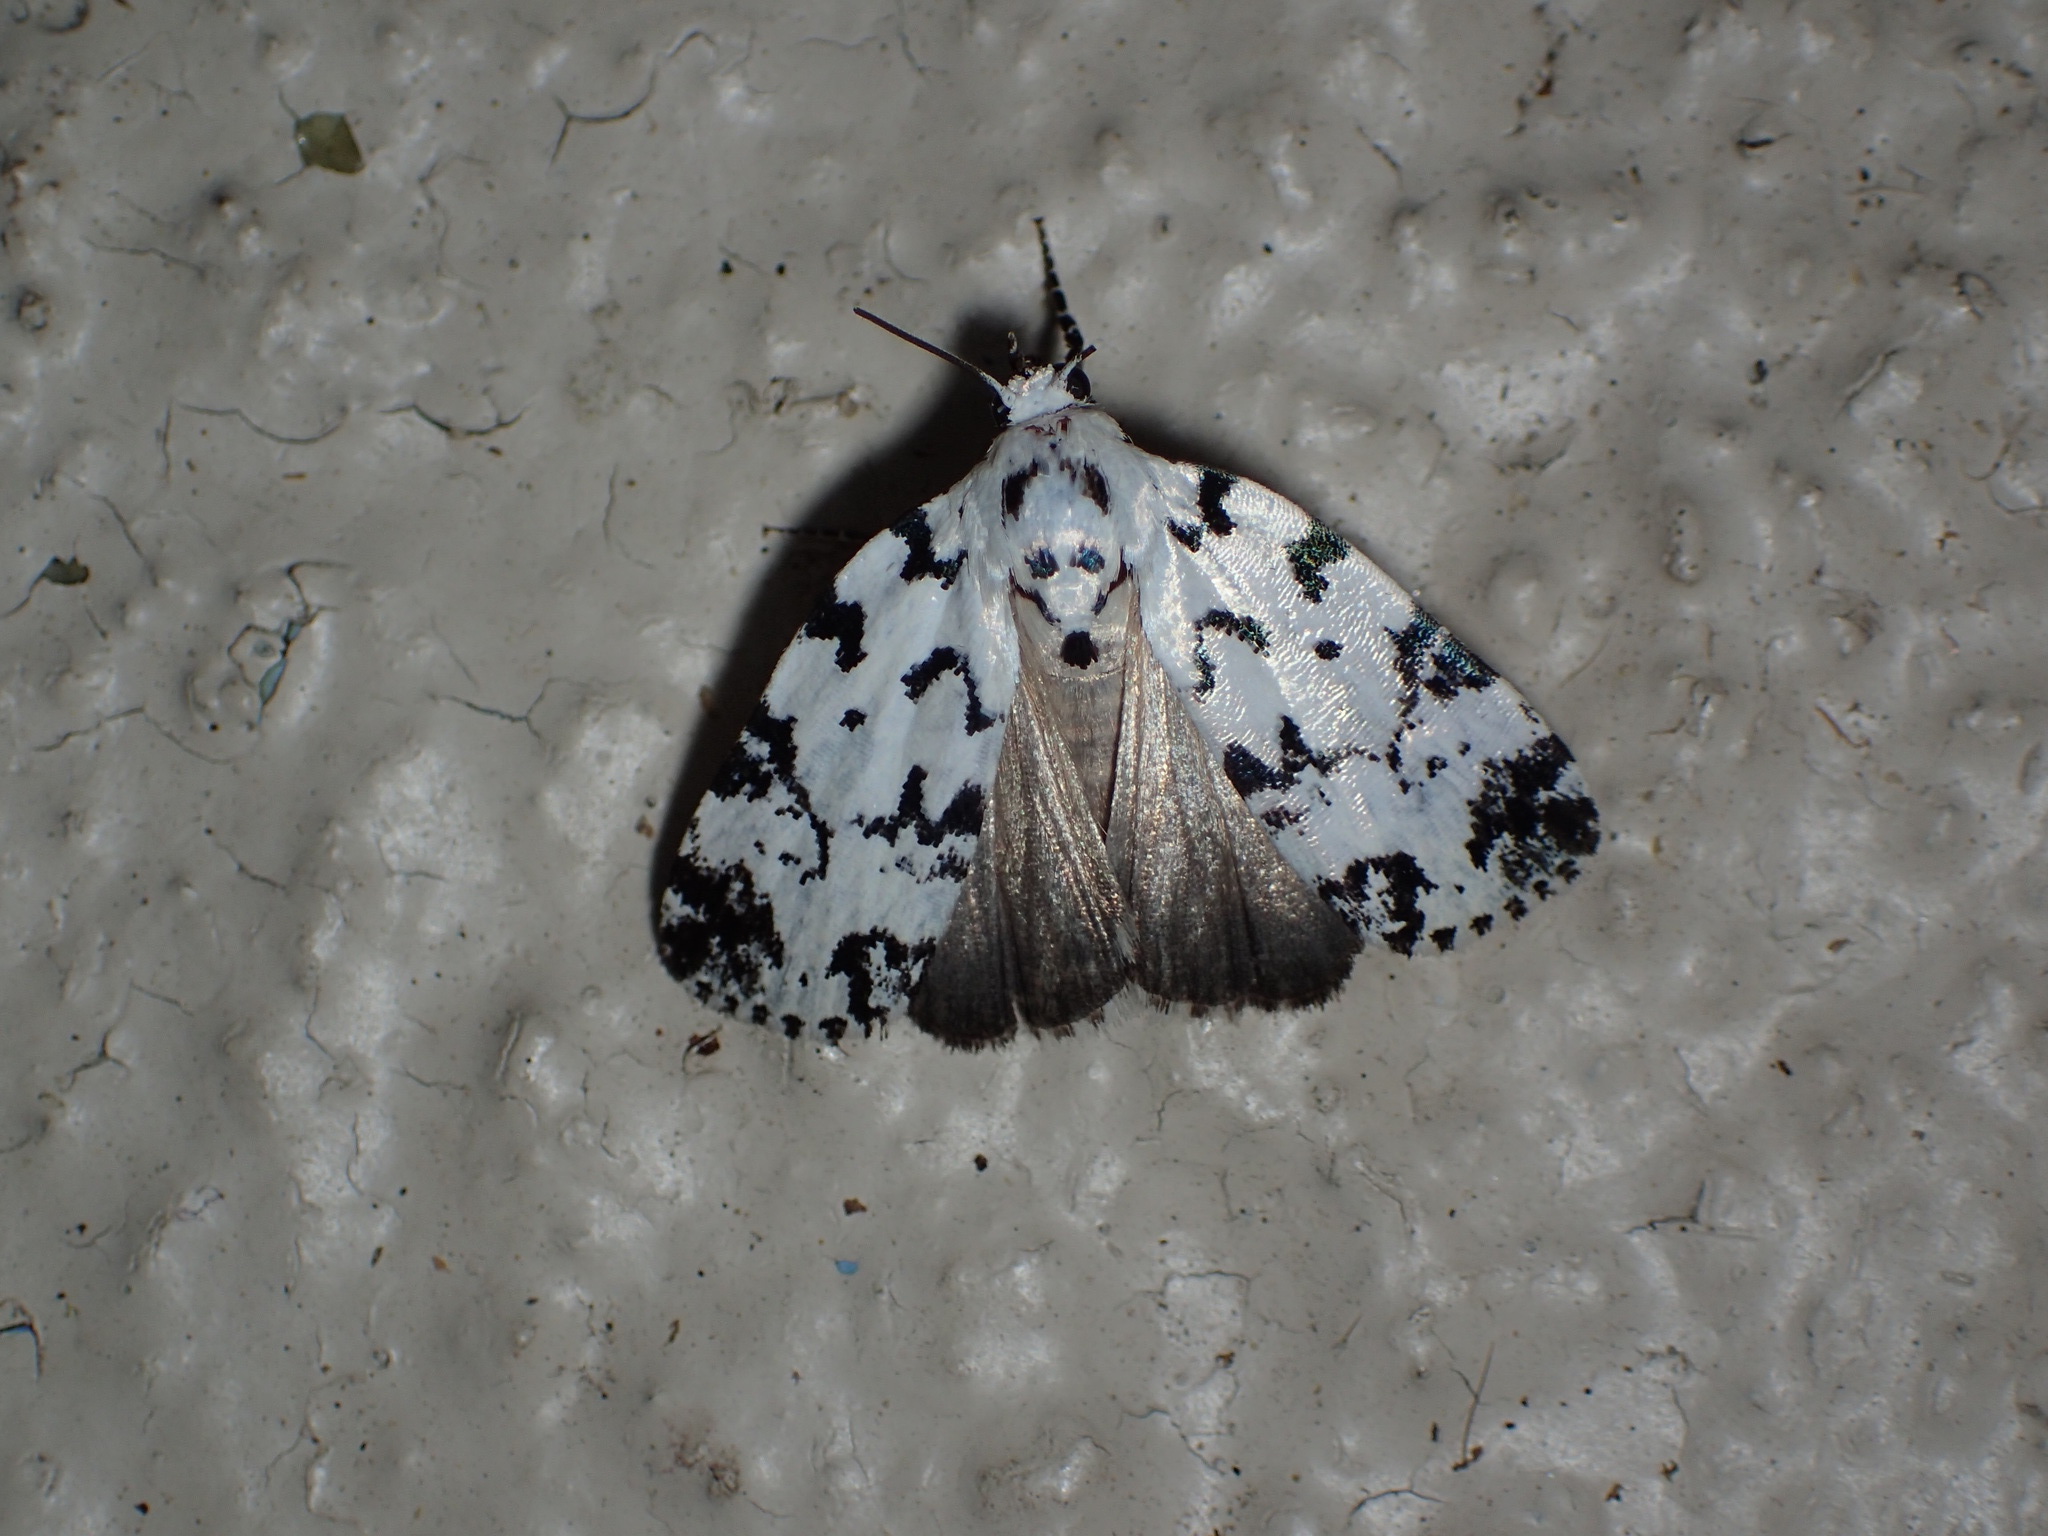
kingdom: Animalia
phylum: Arthropoda
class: Insecta
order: Lepidoptera
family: Noctuidae
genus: Polygrammate
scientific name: Polygrammate hebraeicum
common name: Hebrew moth
